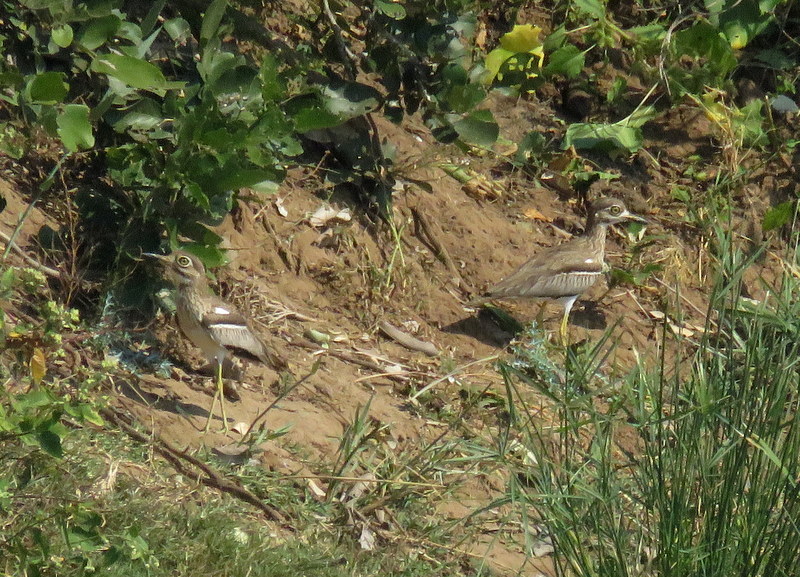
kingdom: Animalia
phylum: Chordata
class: Aves
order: Charadriiformes
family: Burhinidae
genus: Burhinus
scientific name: Burhinus vermiculatus
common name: Water thick-knee
